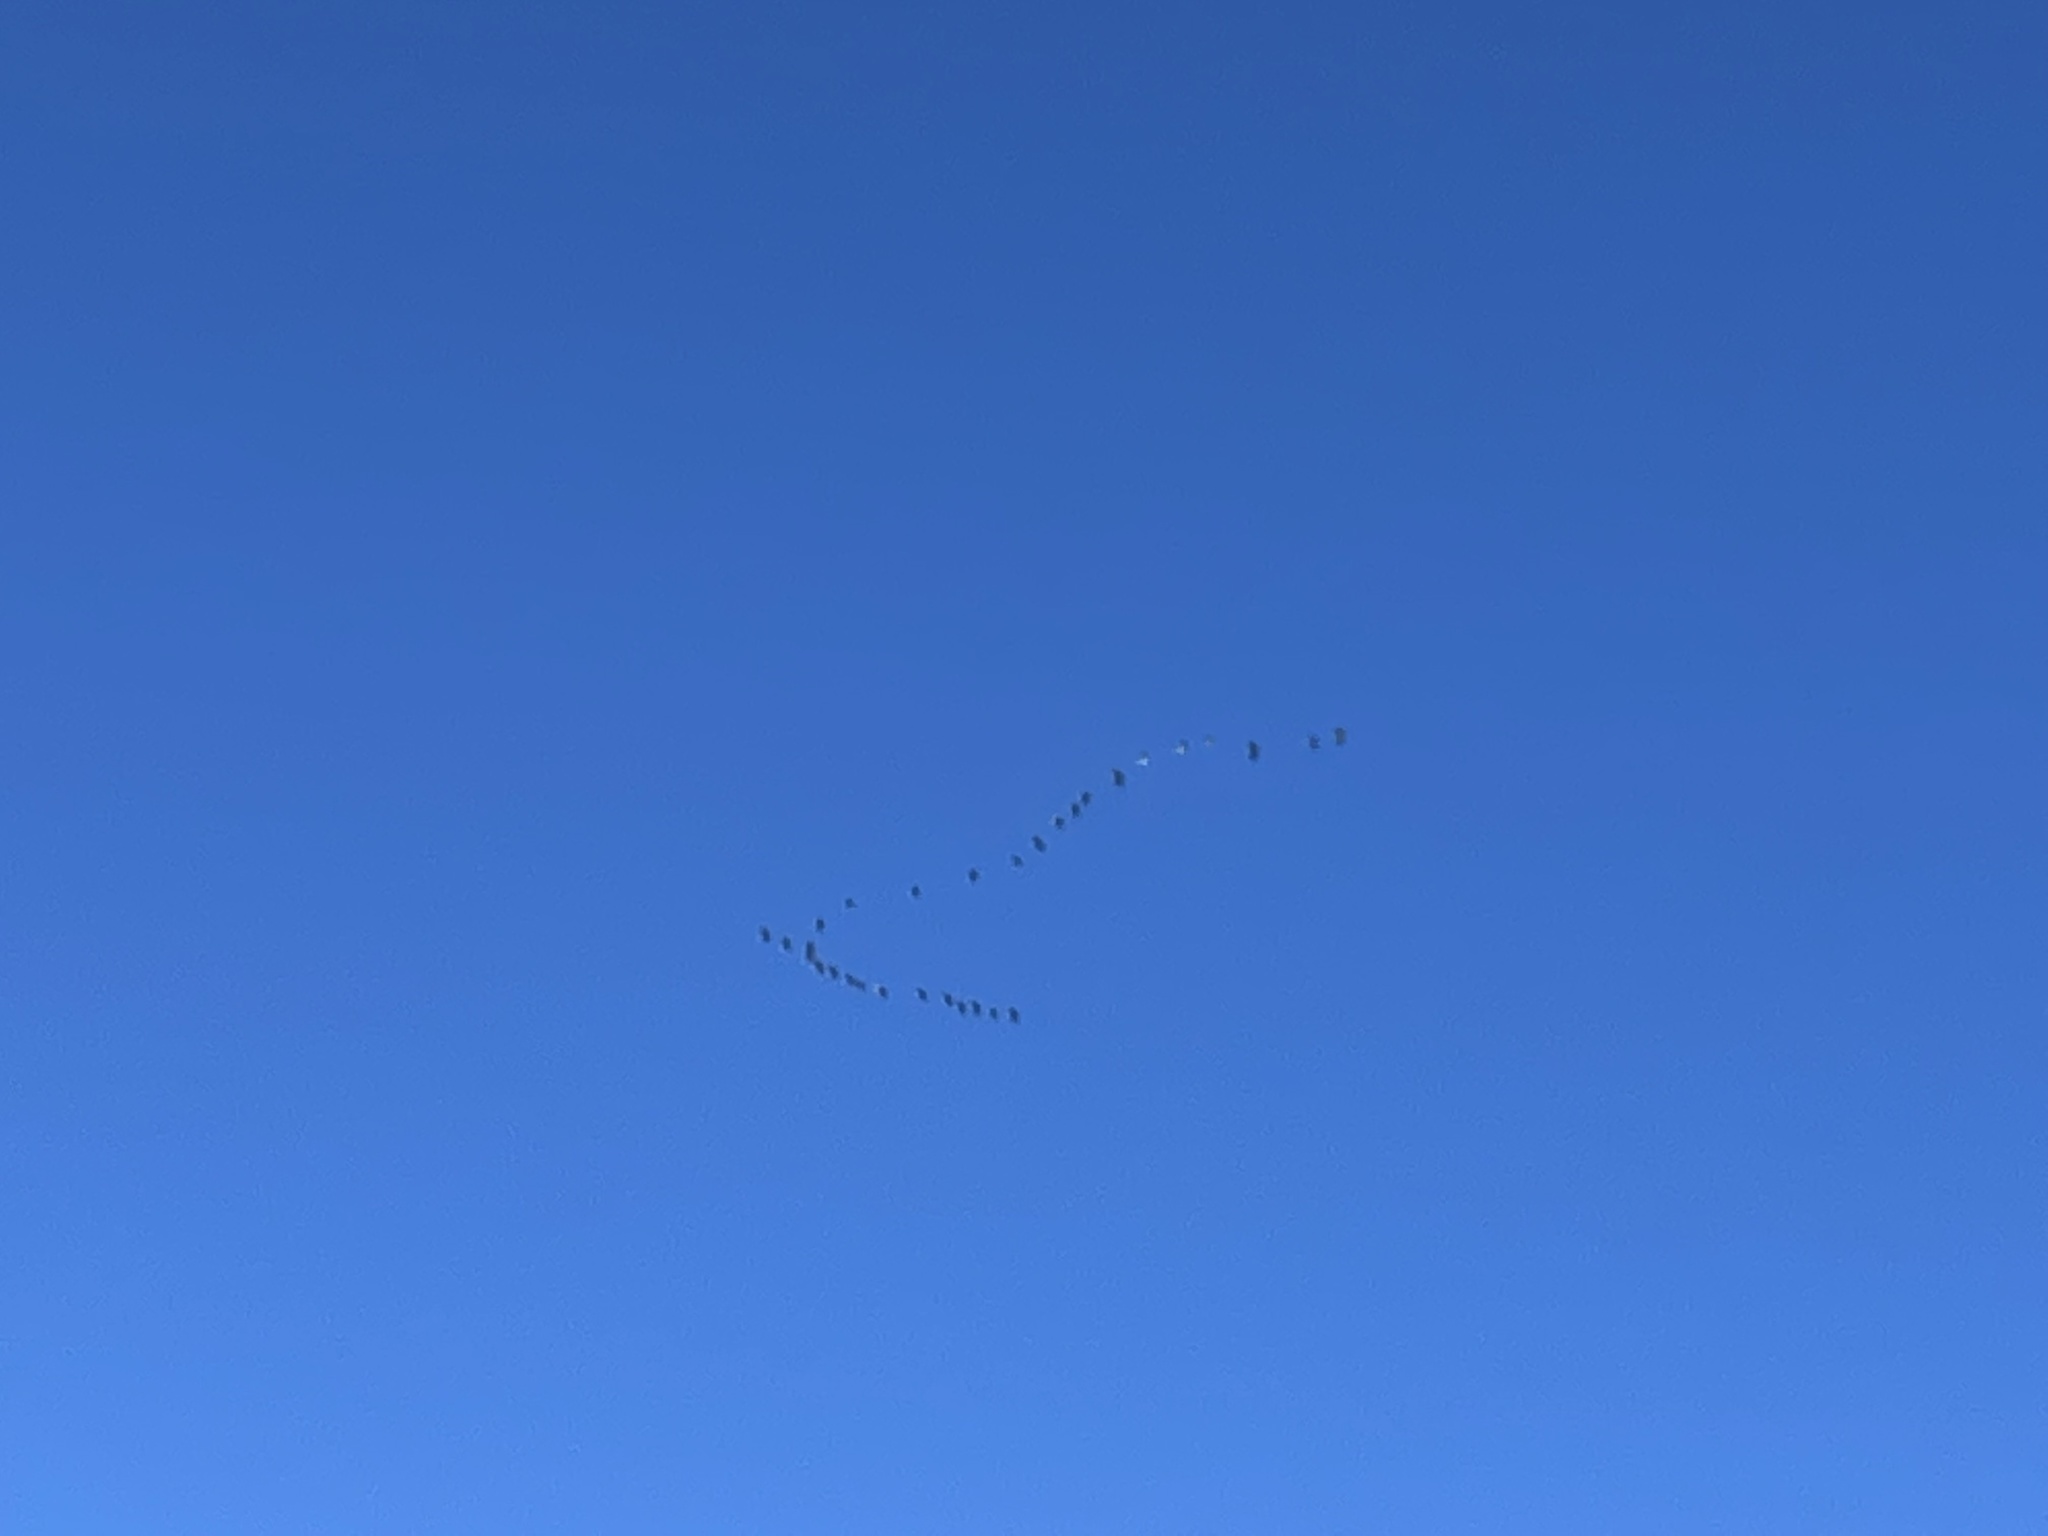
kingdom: Animalia
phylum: Chordata
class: Aves
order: Gruiformes
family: Gruidae
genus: Grus
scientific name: Grus canadensis
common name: Sandhill crane
